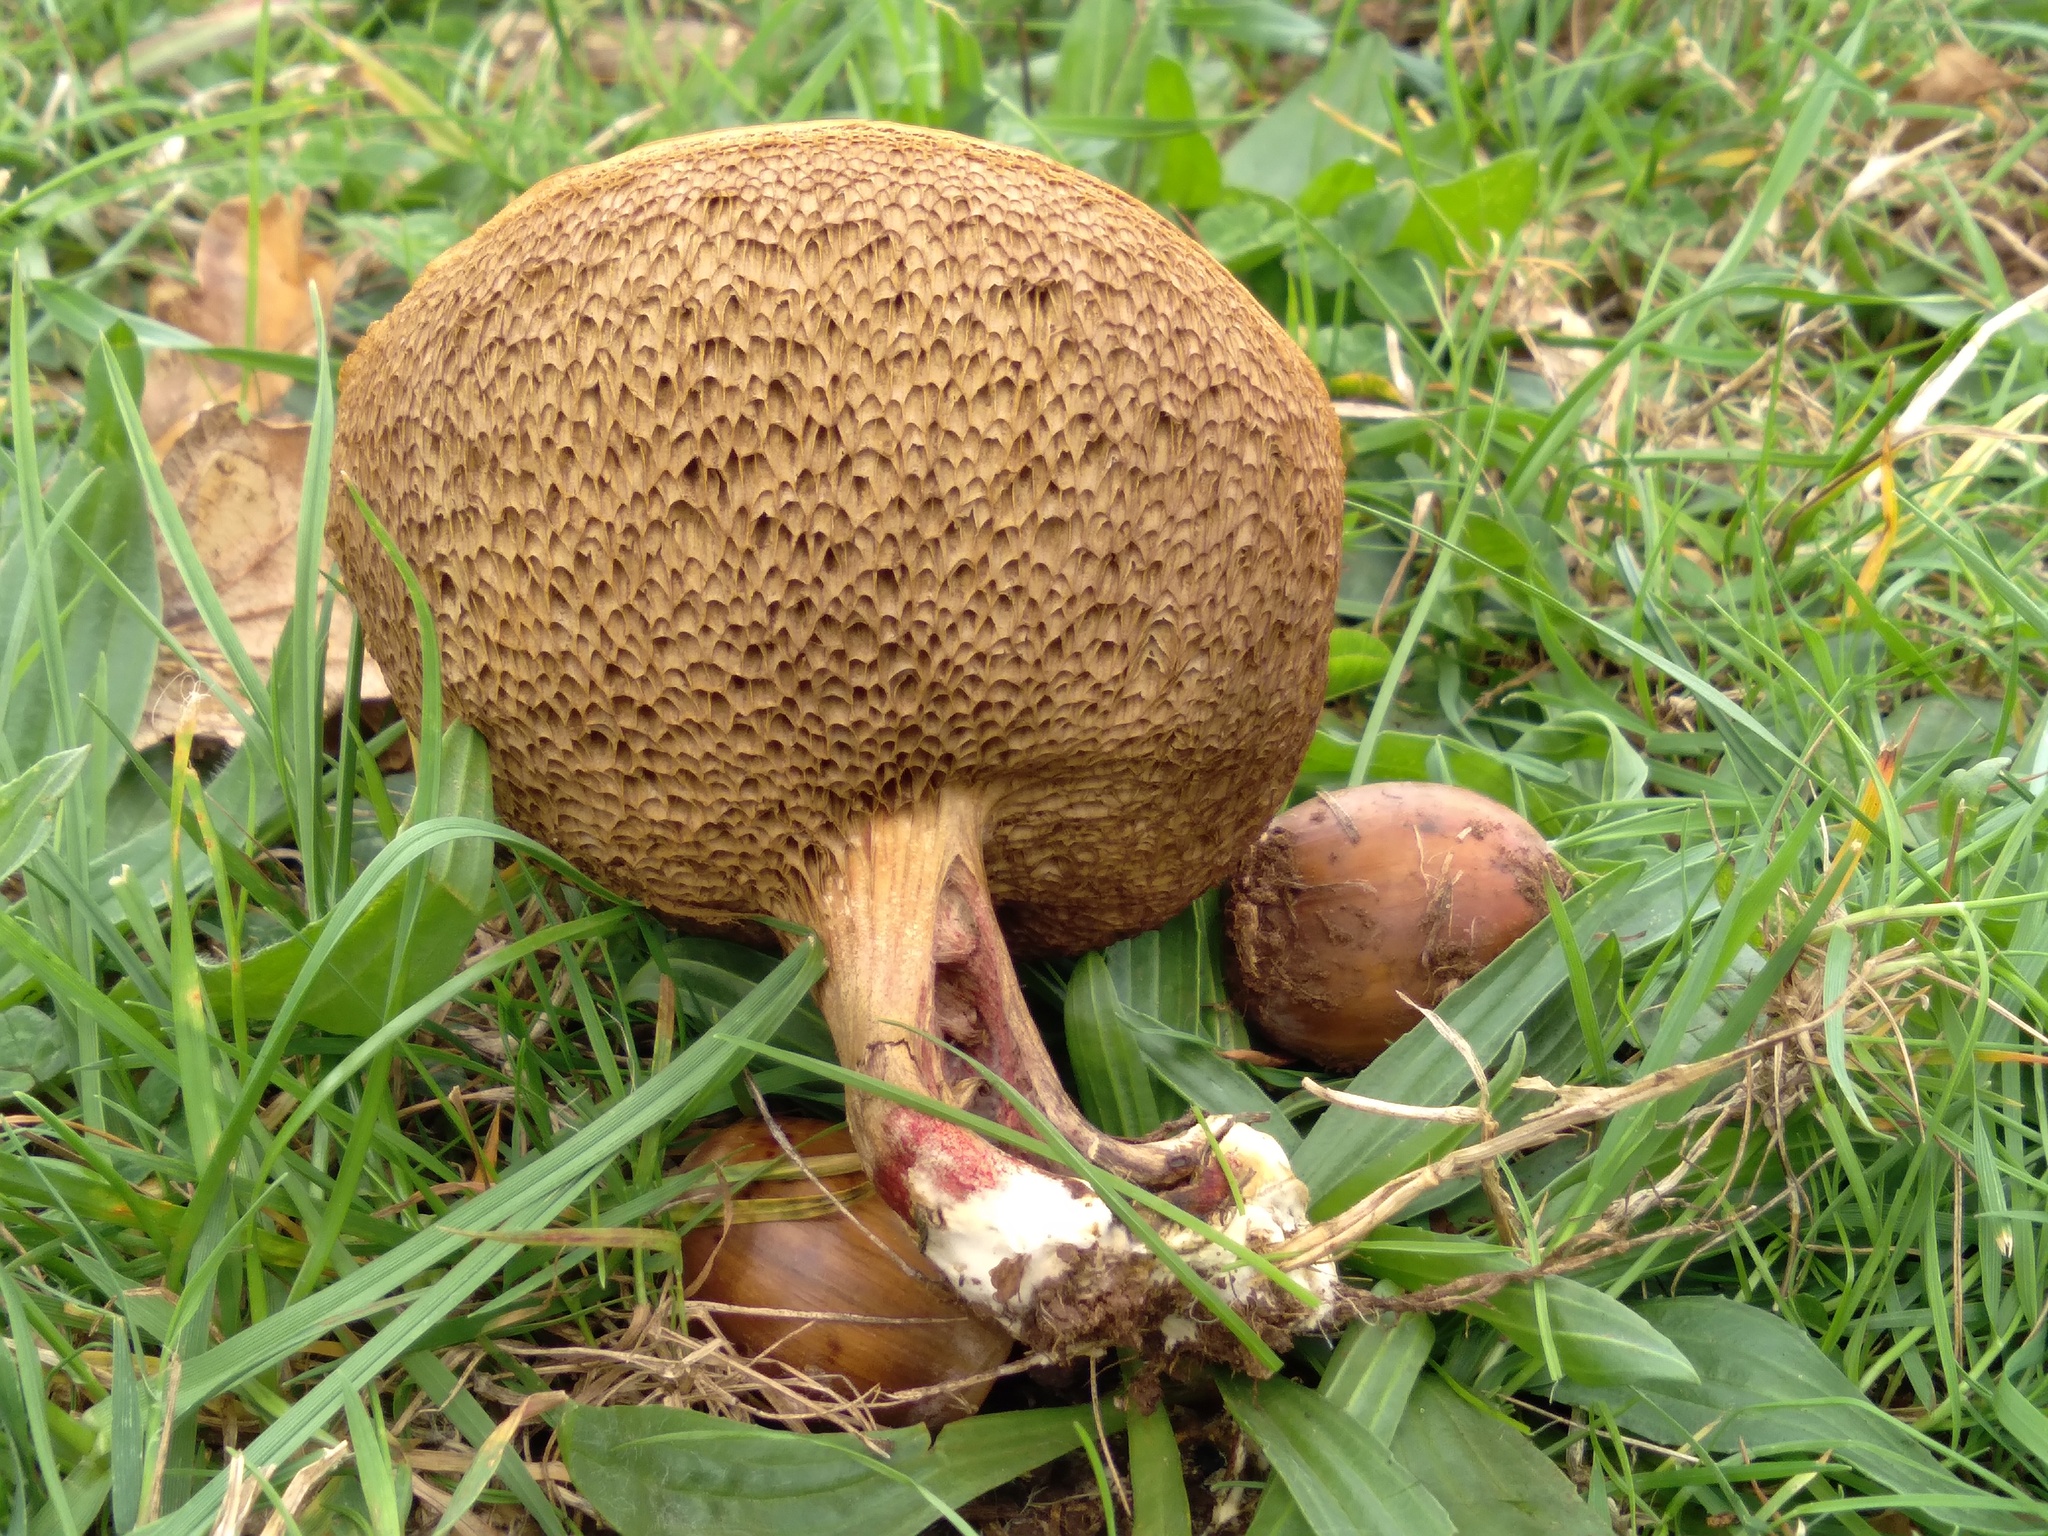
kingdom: Fungi
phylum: Basidiomycota
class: Agaricomycetes
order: Boletales
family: Boletaceae
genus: Xerocomellus
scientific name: Xerocomellus cisalpinus
